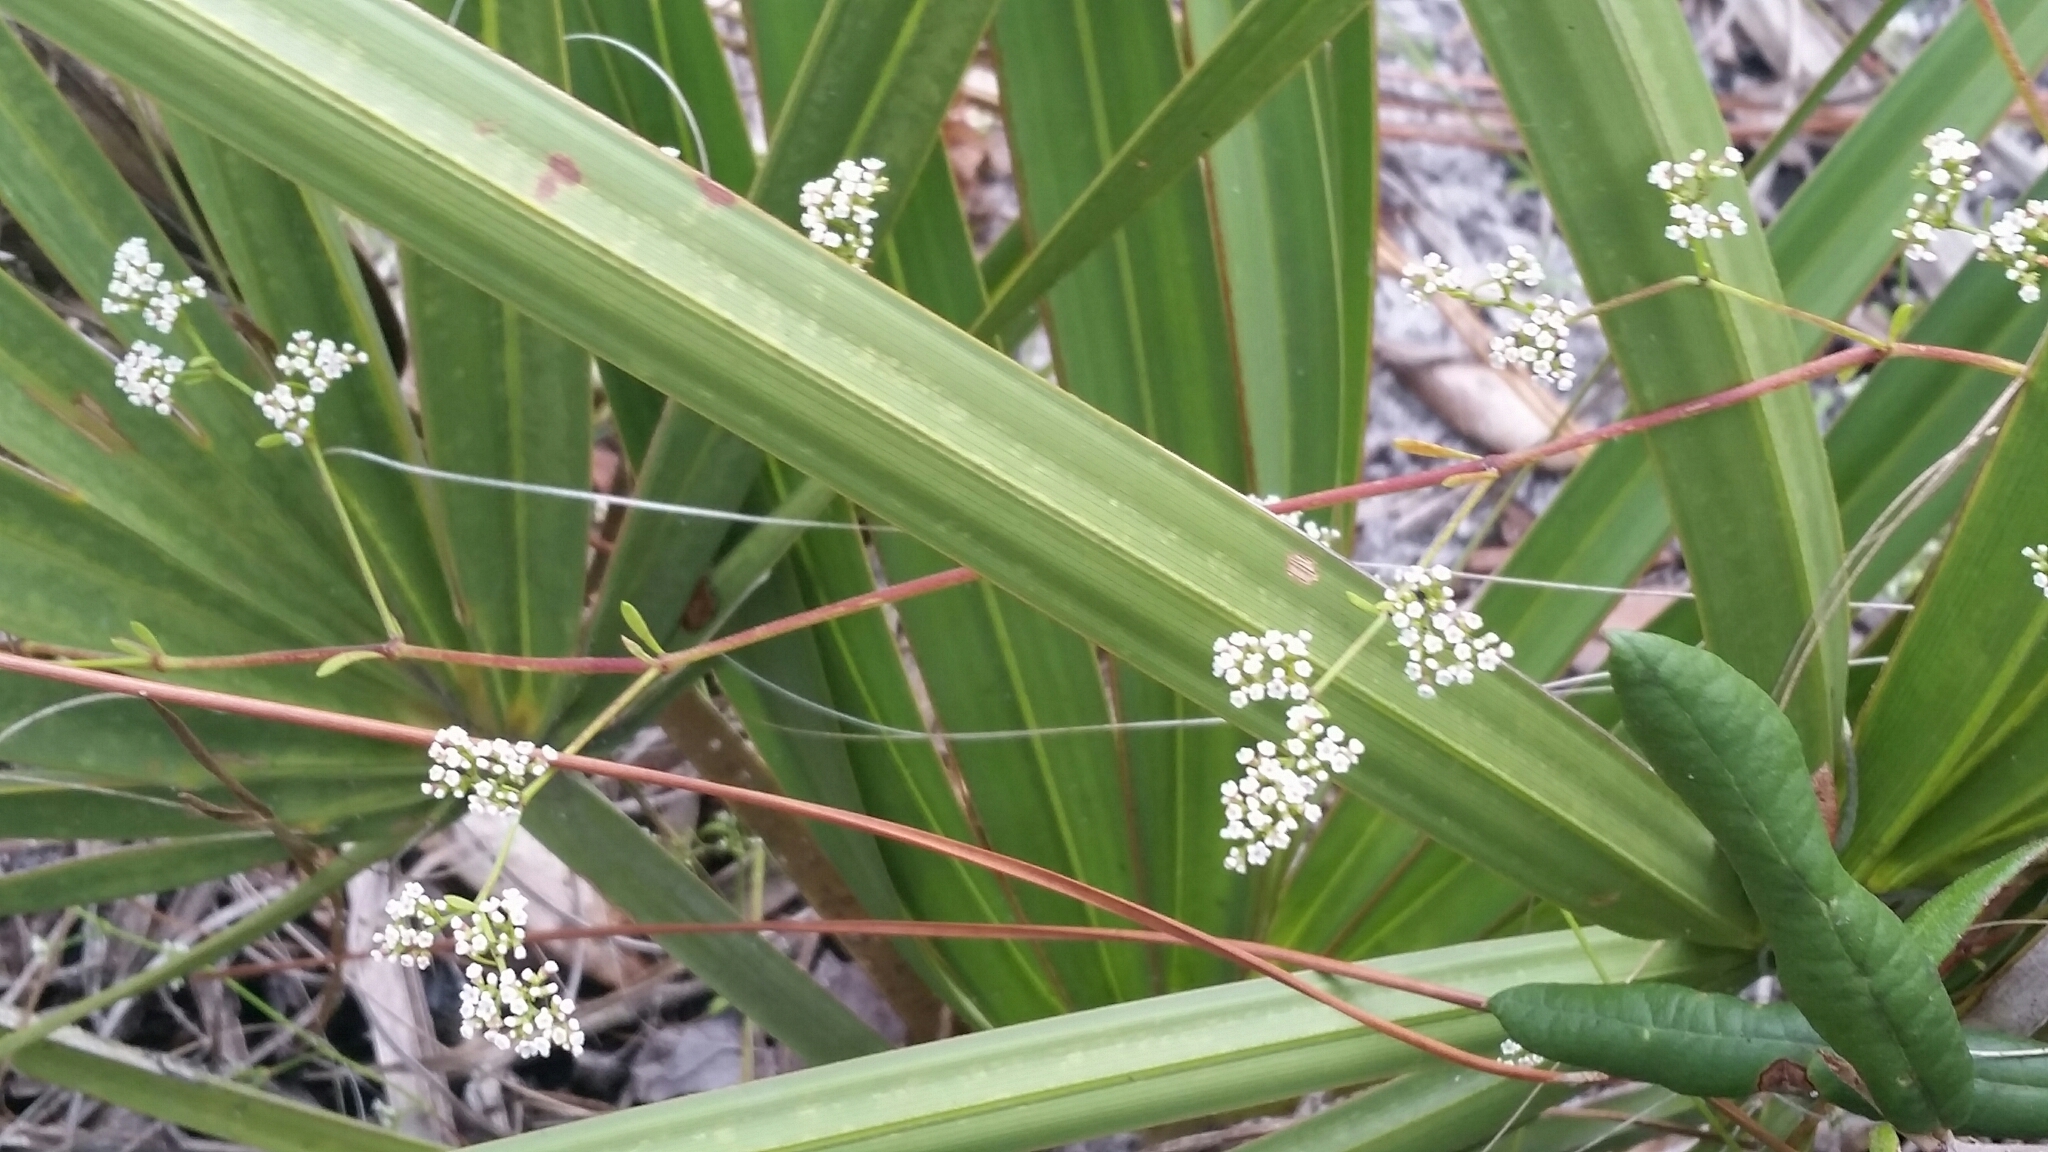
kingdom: Plantae
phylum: Tracheophyta
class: Magnoliopsida
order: Caryophyllales
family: Caryophyllaceae
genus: Paronychia
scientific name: Paronychia americana
